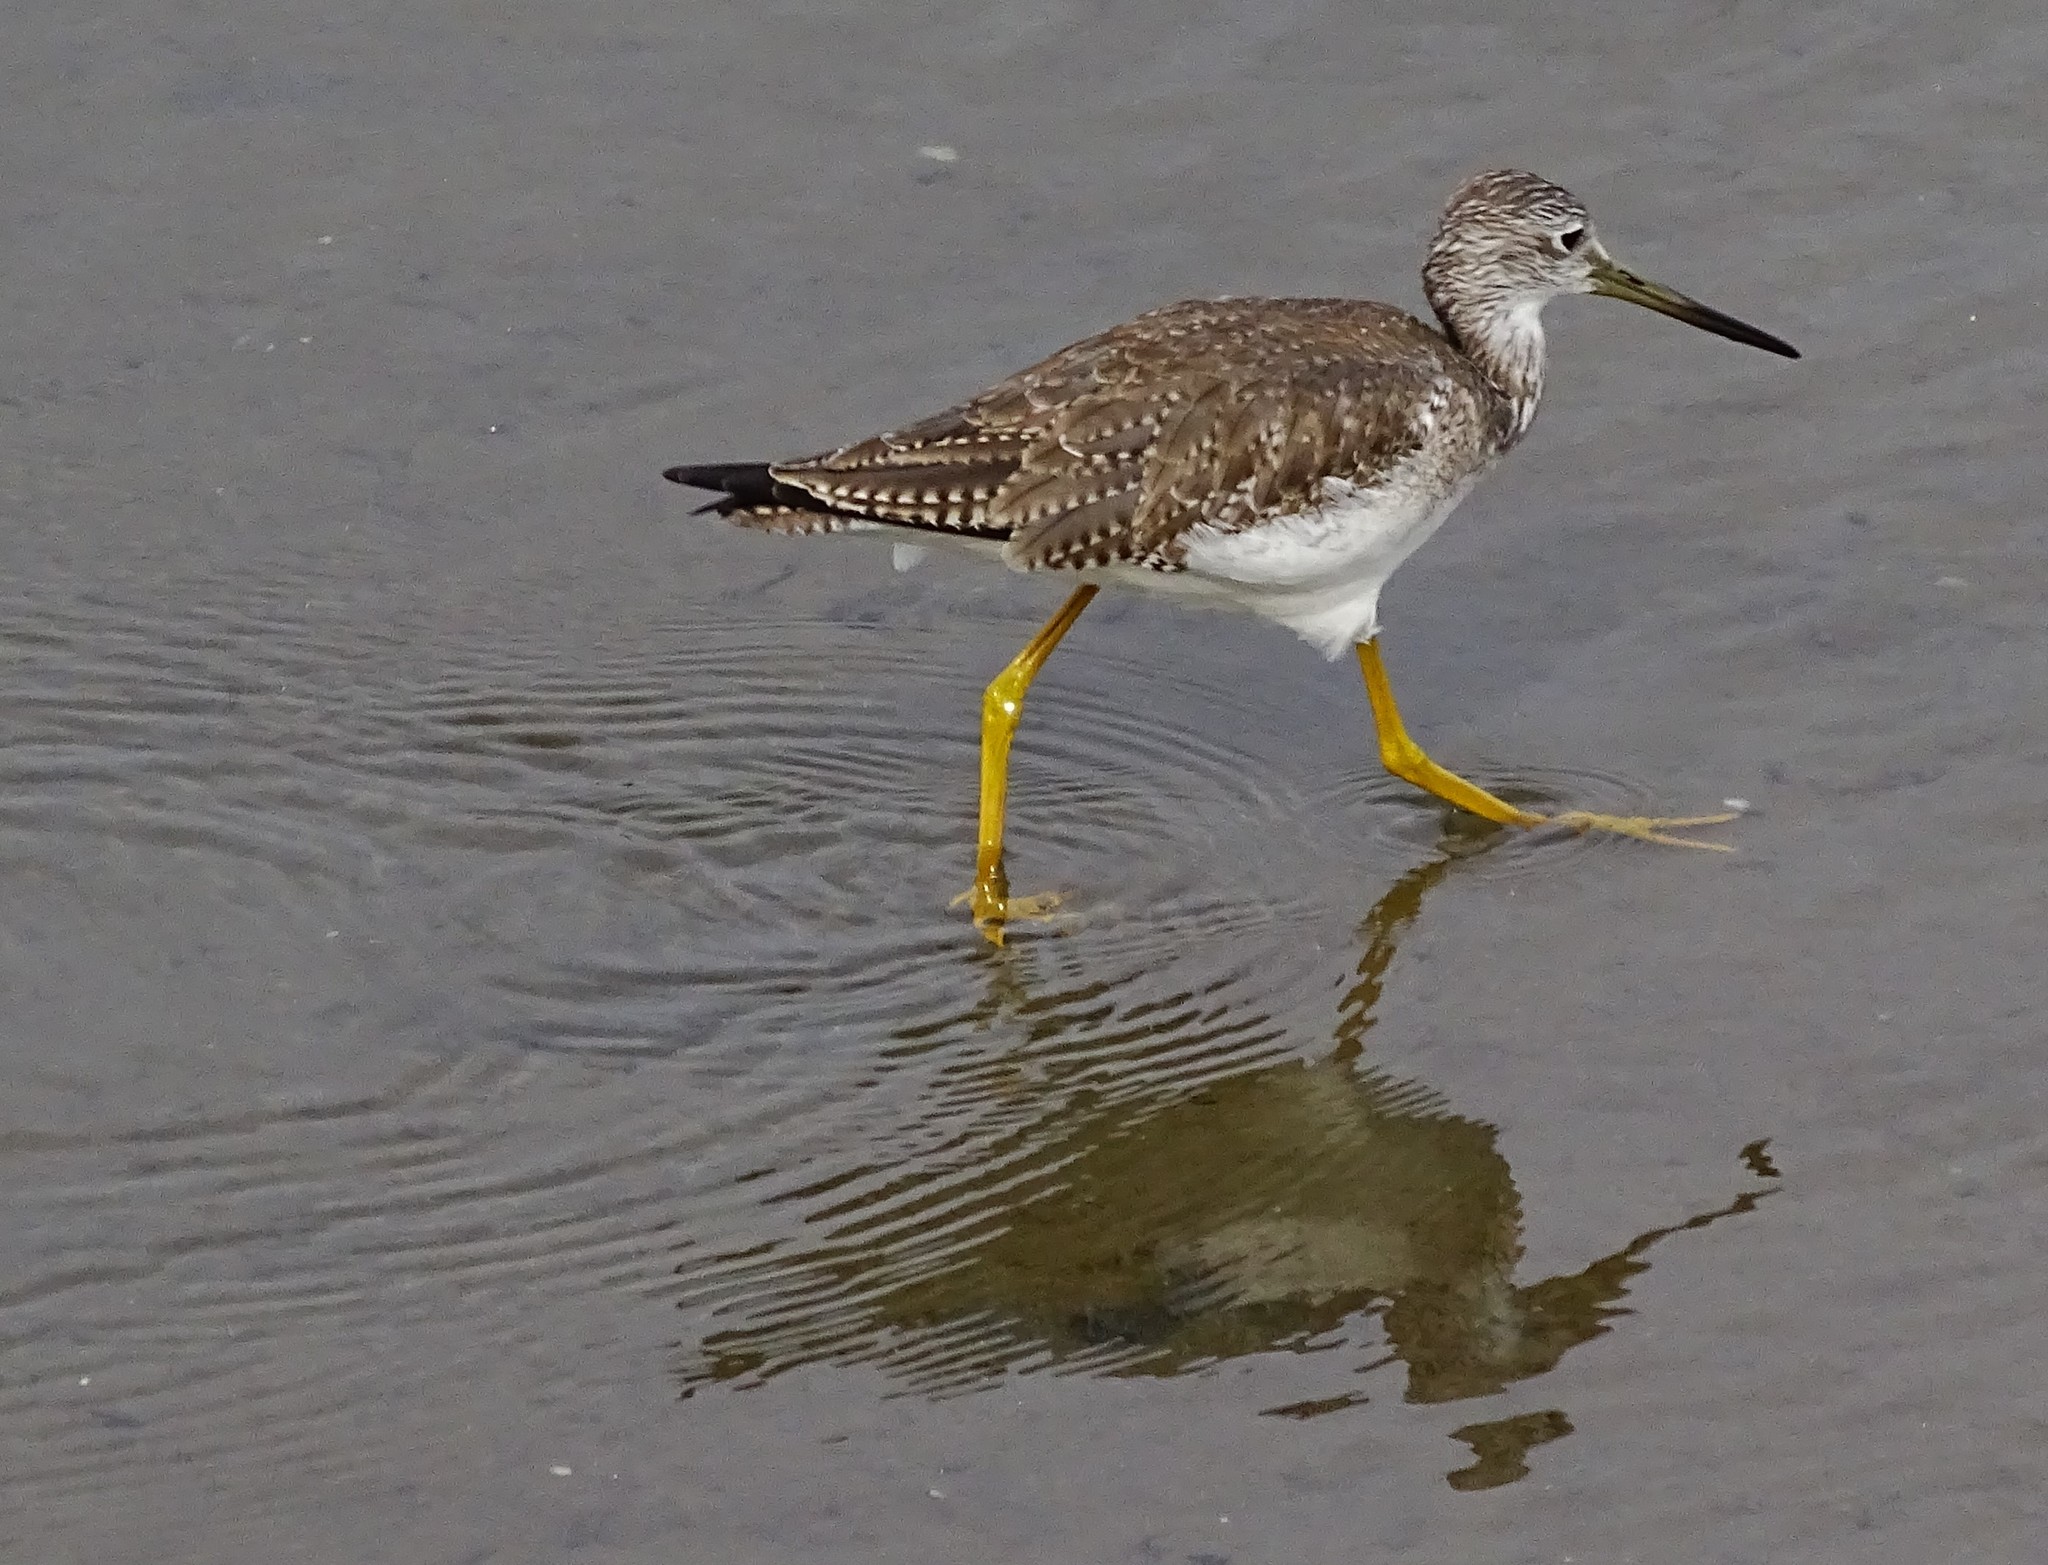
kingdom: Animalia
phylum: Chordata
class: Aves
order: Charadriiformes
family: Scolopacidae
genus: Tringa
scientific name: Tringa melanoleuca
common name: Greater yellowlegs
